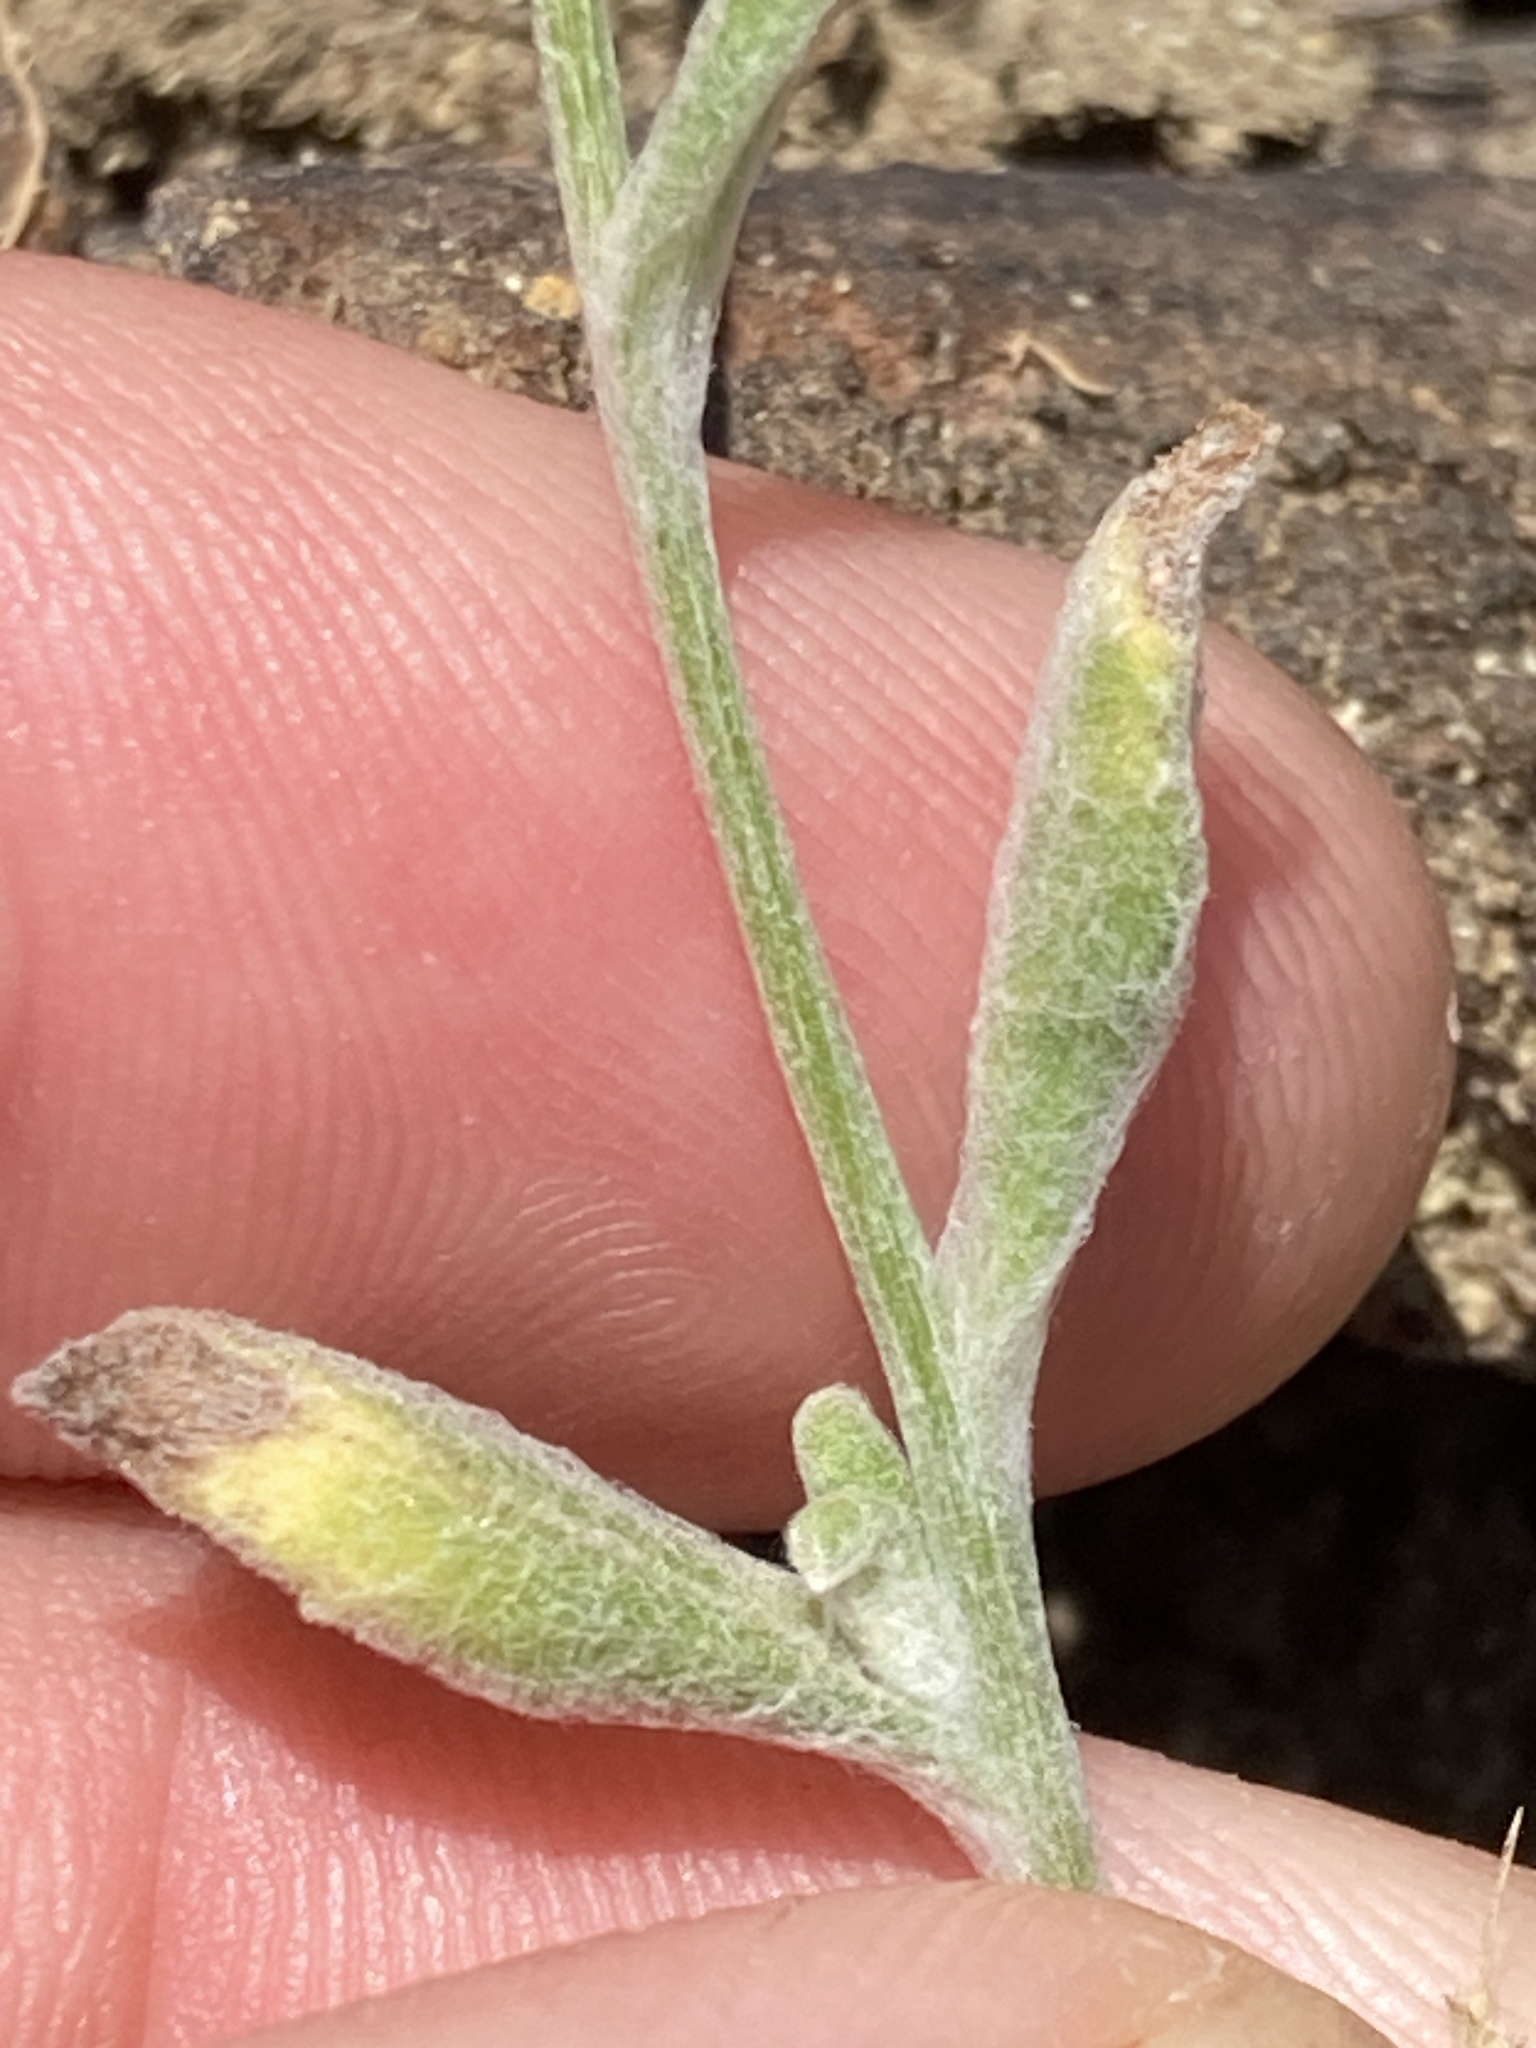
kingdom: Plantae
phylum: Tracheophyta
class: Magnoliopsida
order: Asterales
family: Asteraceae
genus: Monolopia
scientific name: Monolopia major
